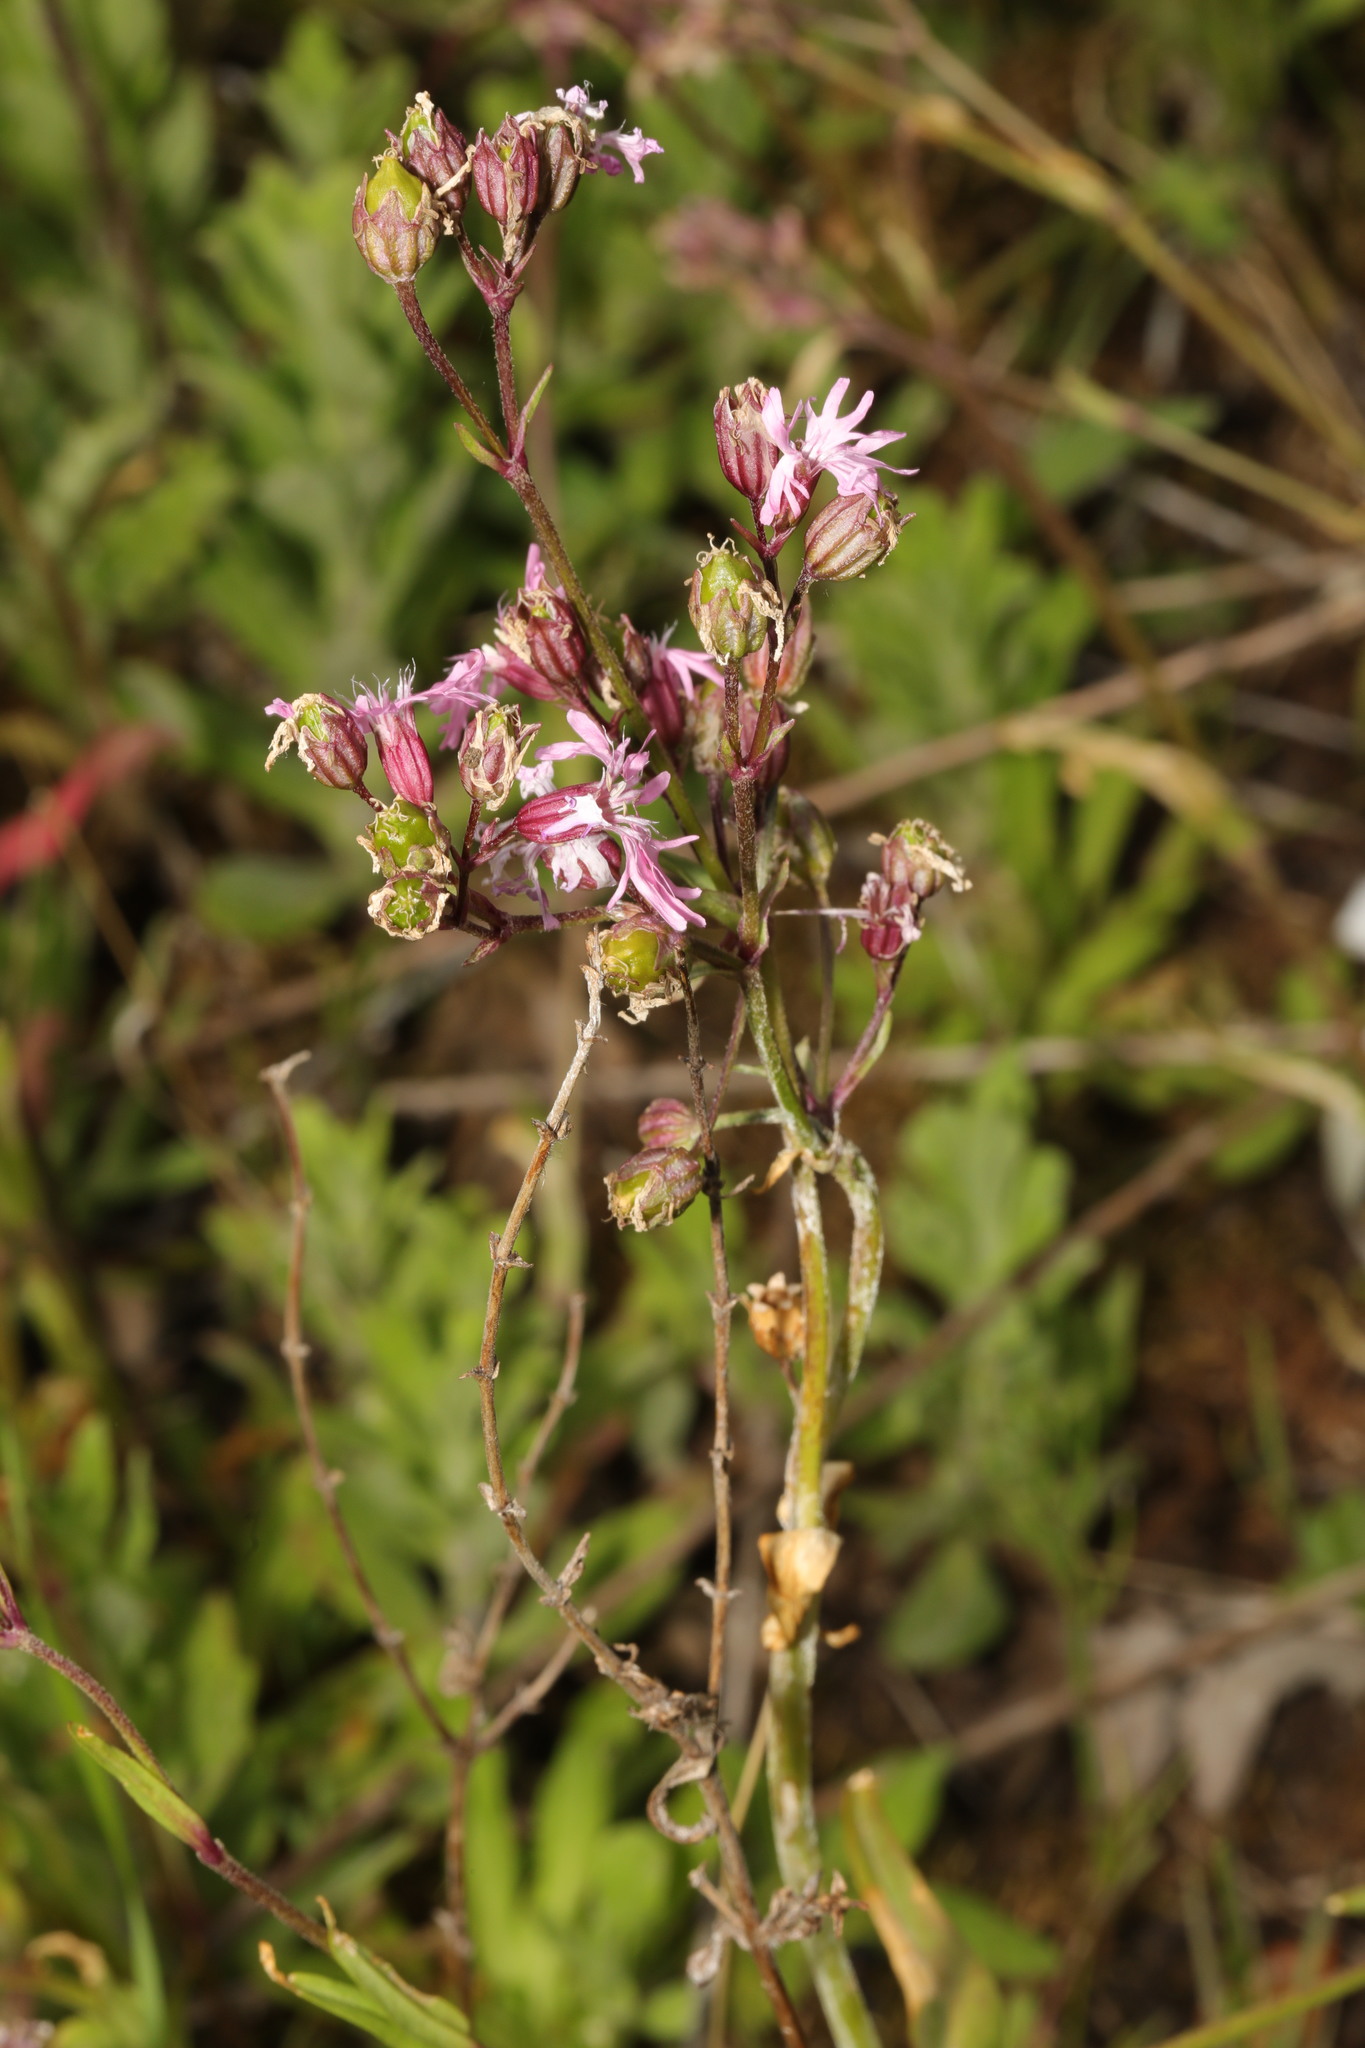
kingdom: Plantae
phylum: Tracheophyta
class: Magnoliopsida
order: Caryophyllales
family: Caryophyllaceae
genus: Silene
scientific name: Silene flos-cuculi
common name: Ragged-robin
